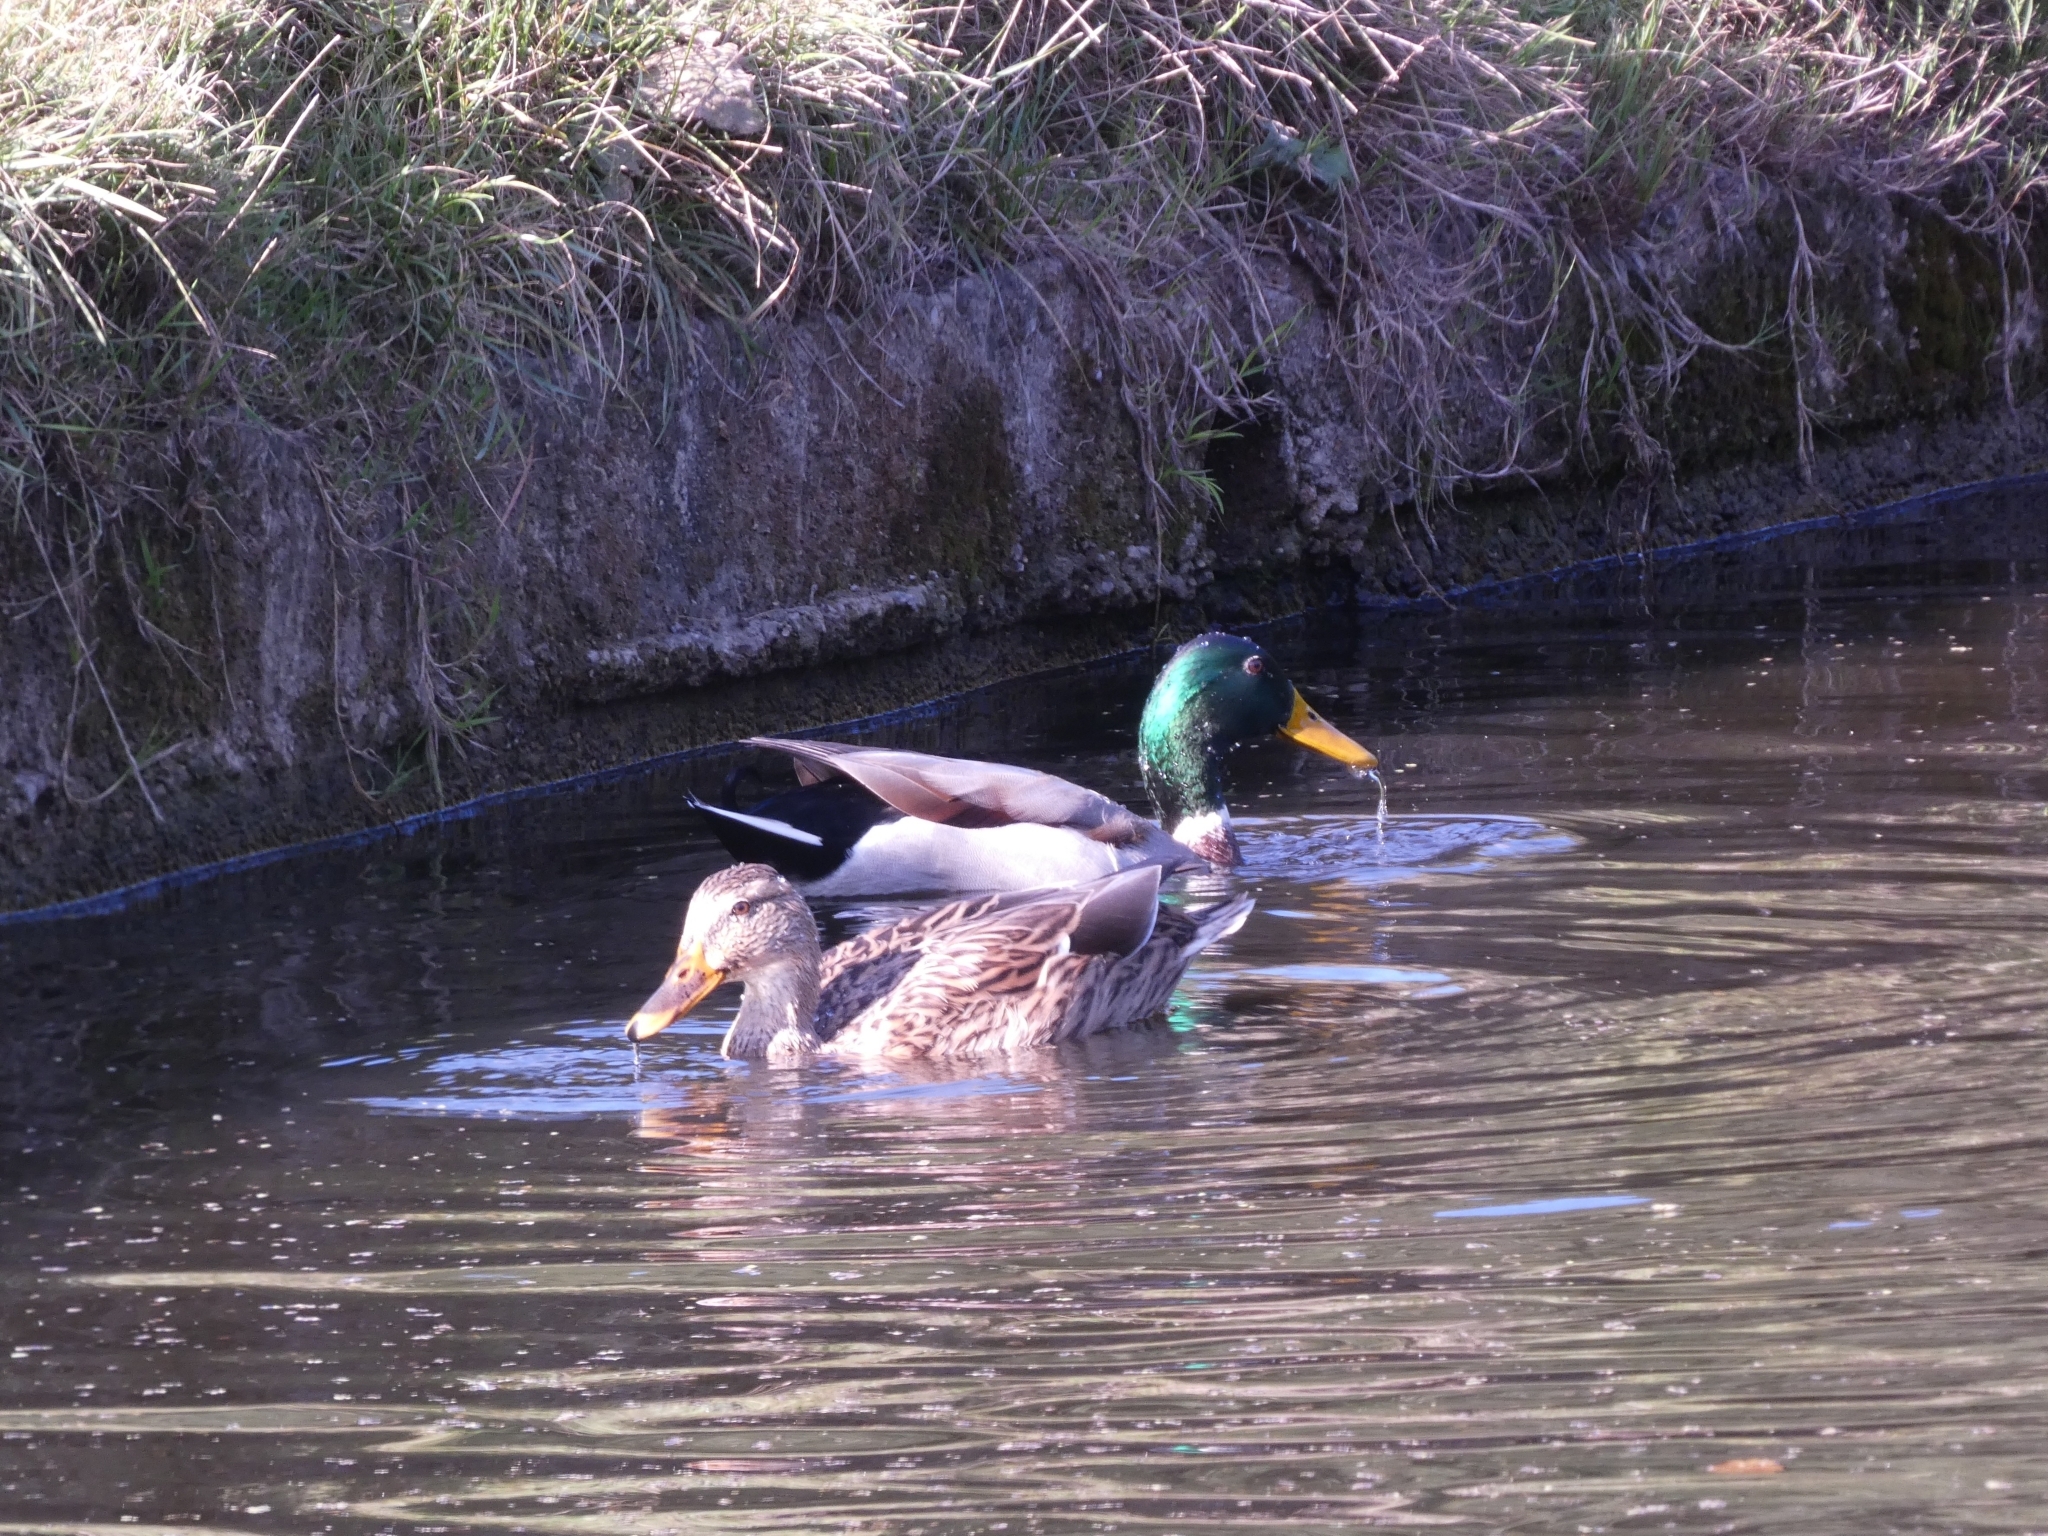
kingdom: Animalia
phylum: Chordata
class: Aves
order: Anseriformes
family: Anatidae
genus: Anas
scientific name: Anas platyrhynchos
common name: Mallard
